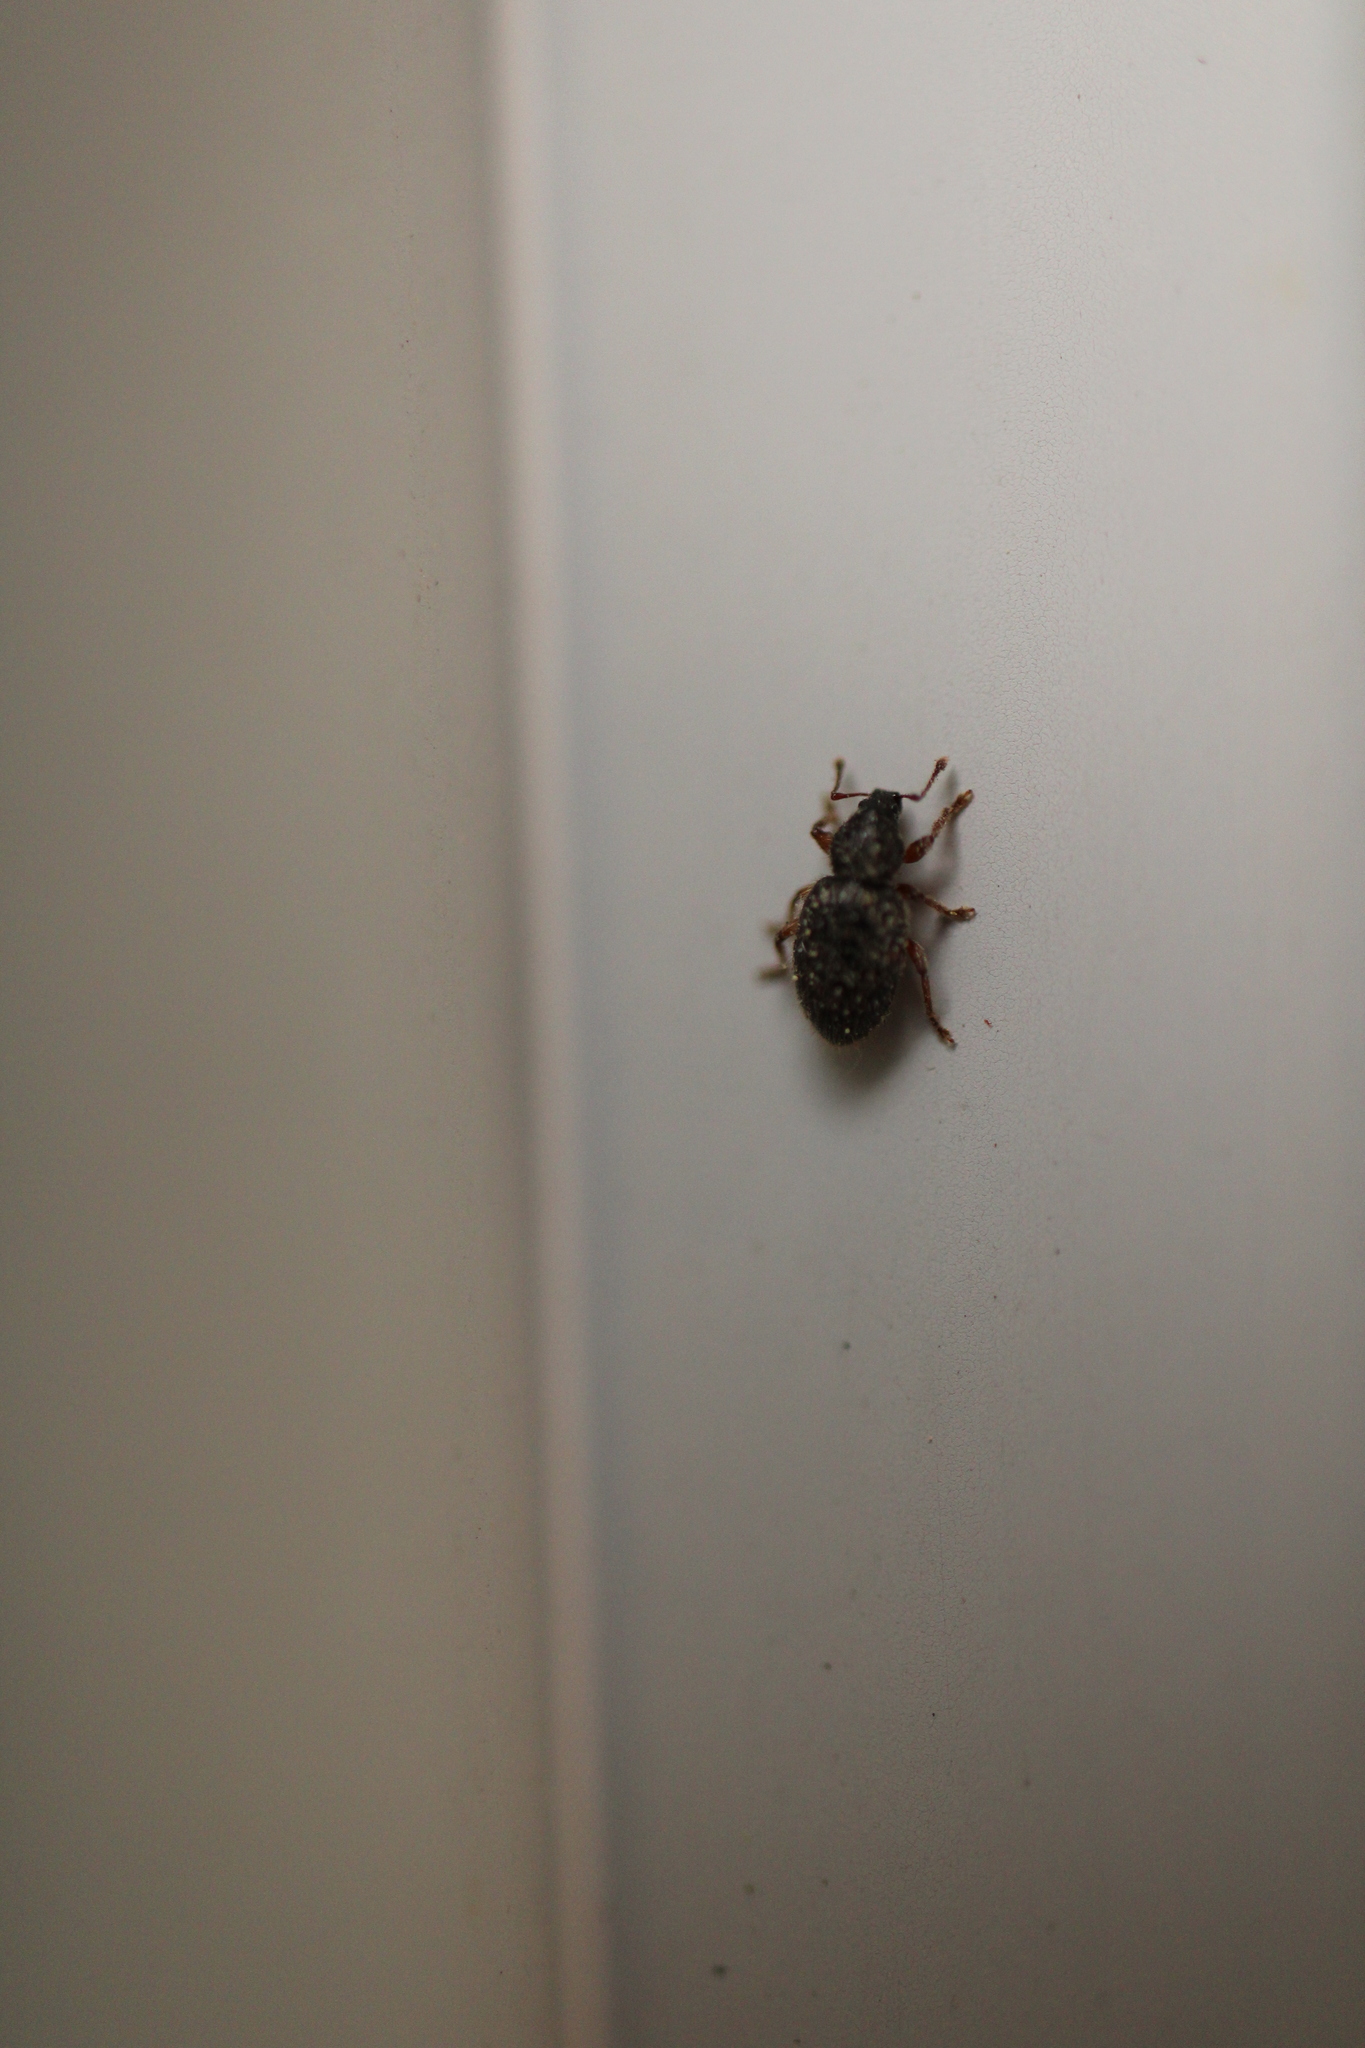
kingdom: Animalia
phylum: Arthropoda
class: Insecta
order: Coleoptera
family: Curculionidae
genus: Exomias
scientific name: Exomias pellucidus
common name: Hairy spider weevil
